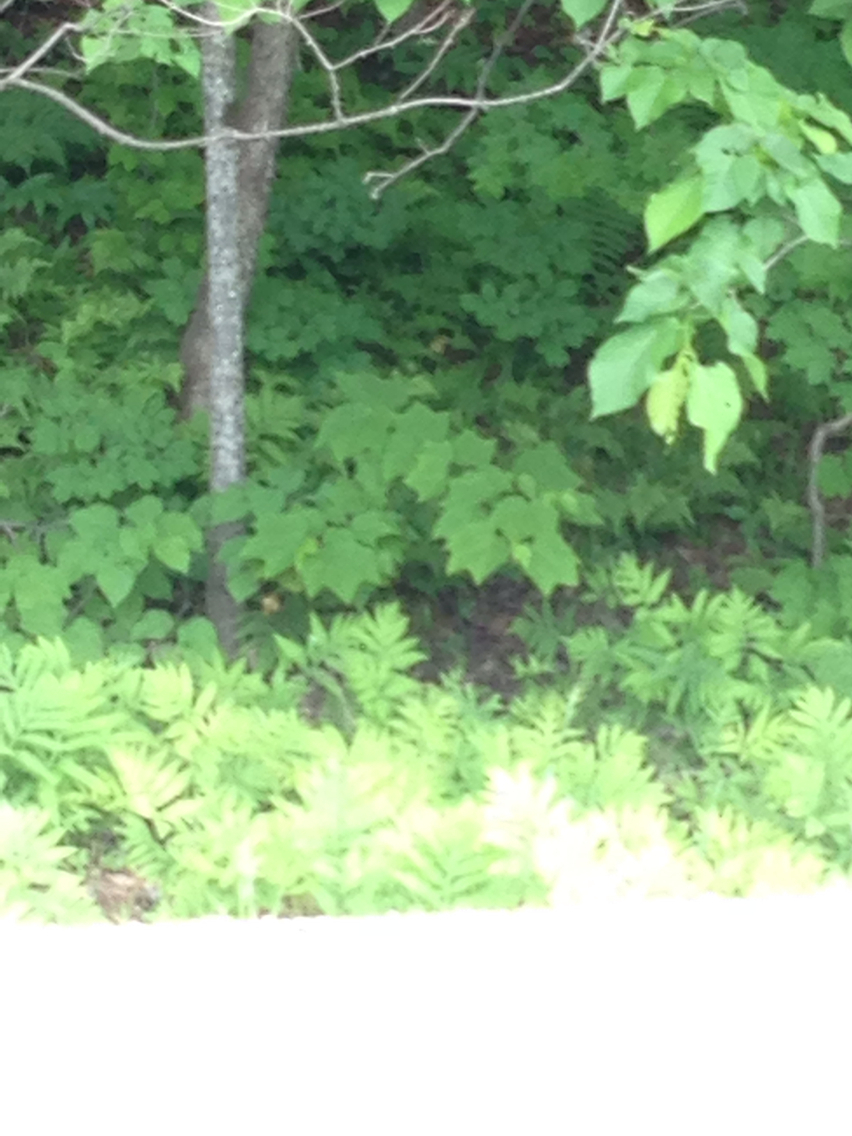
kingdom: Plantae
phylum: Tracheophyta
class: Magnoliopsida
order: Sapindales
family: Sapindaceae
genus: Acer
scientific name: Acer pensylvanicum
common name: Moosewood
